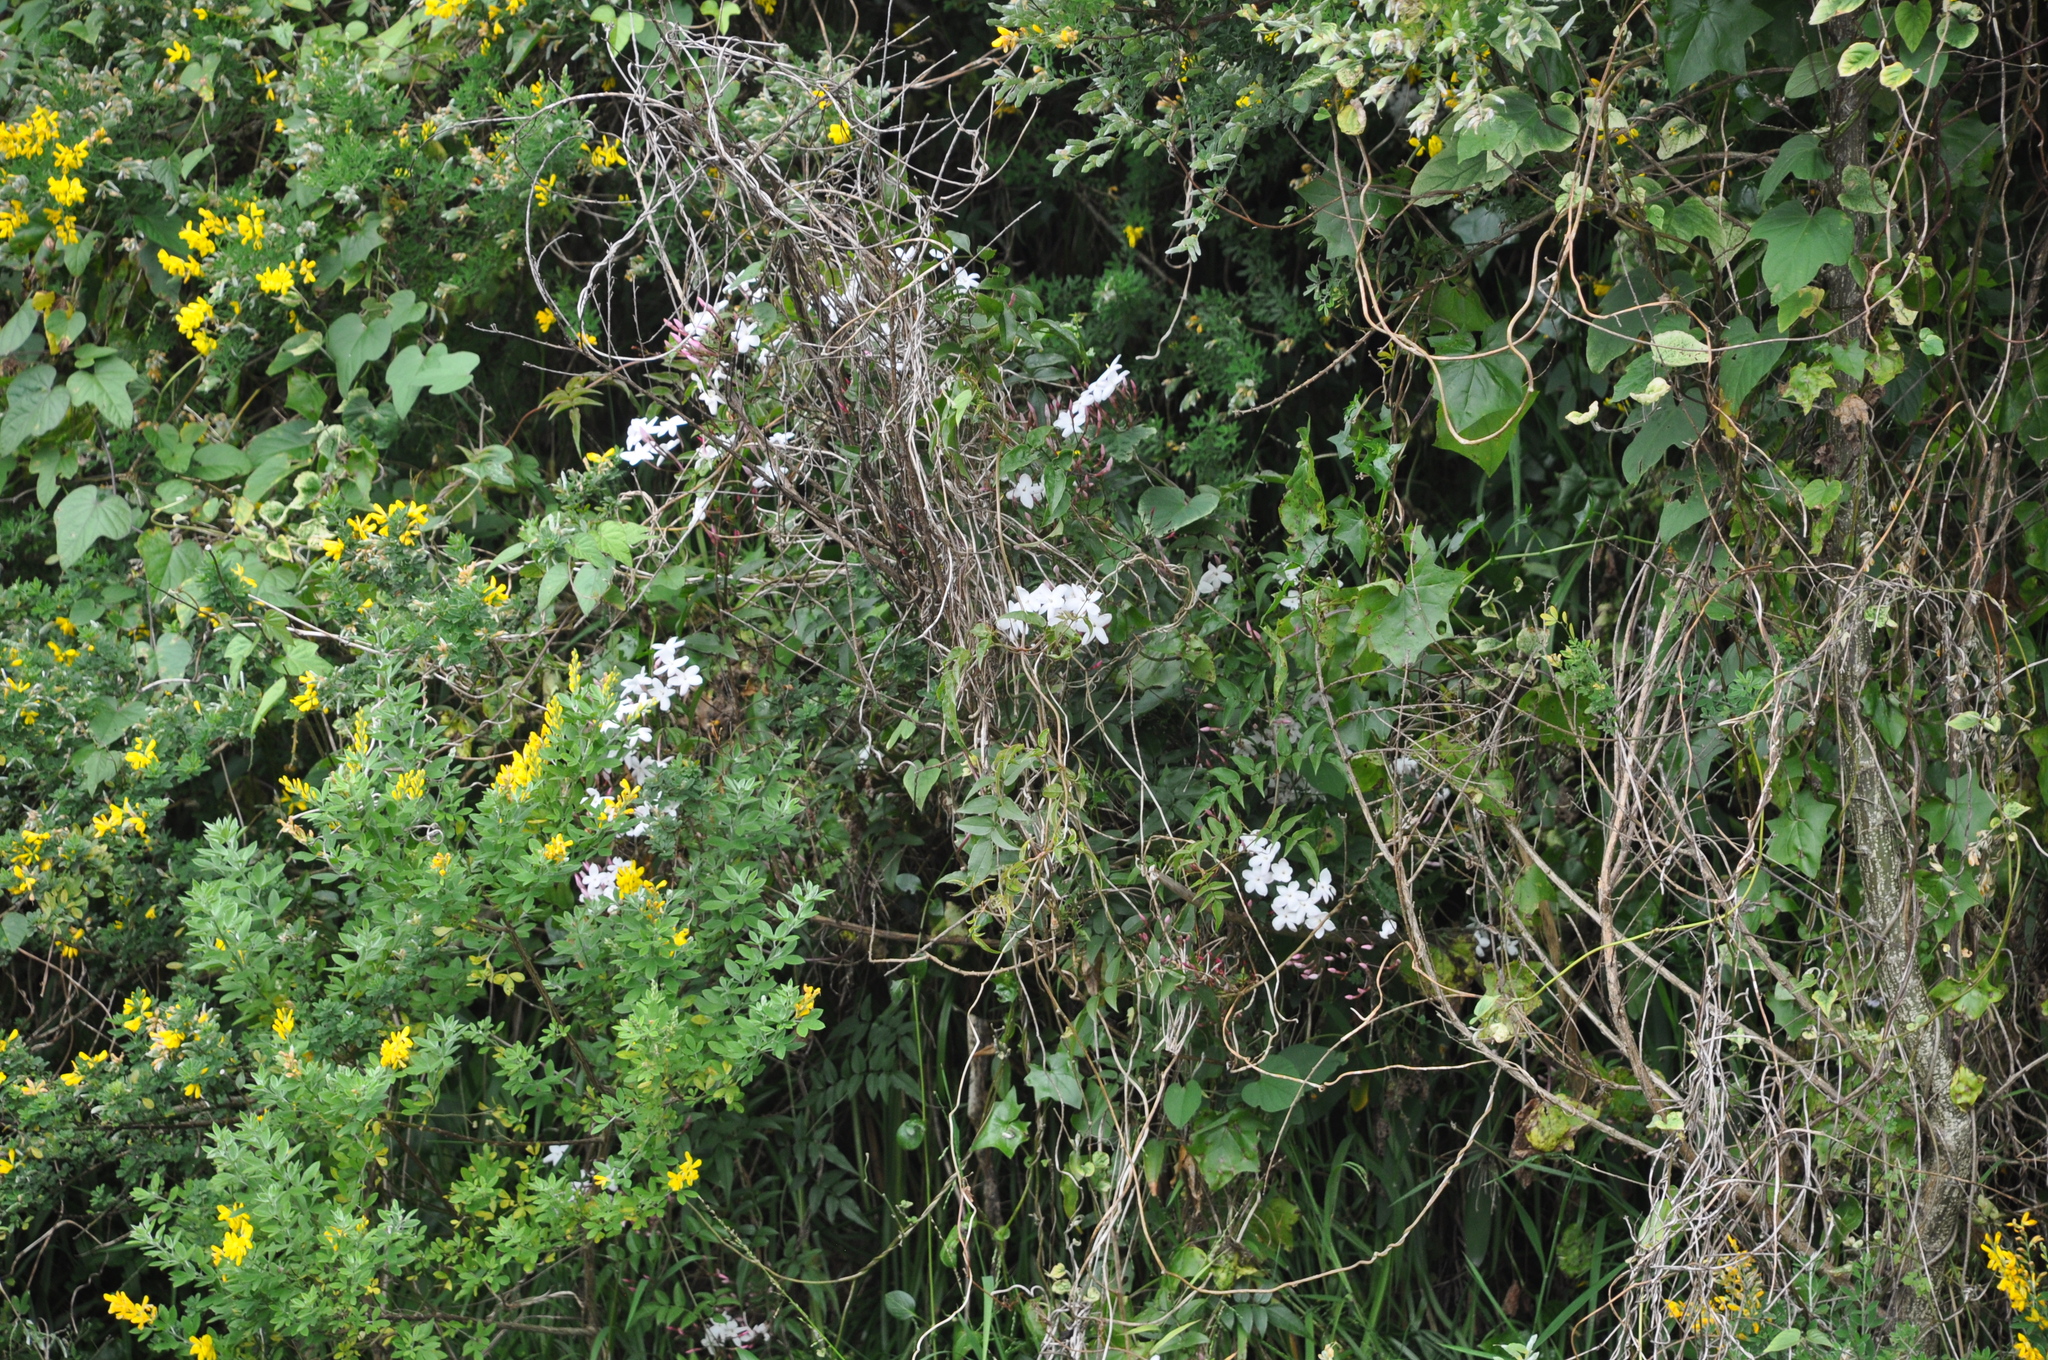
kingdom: Plantae
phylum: Tracheophyta
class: Magnoliopsida
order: Lamiales
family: Oleaceae
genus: Jasminum
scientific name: Jasminum polyanthum
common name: Pink jasmine
